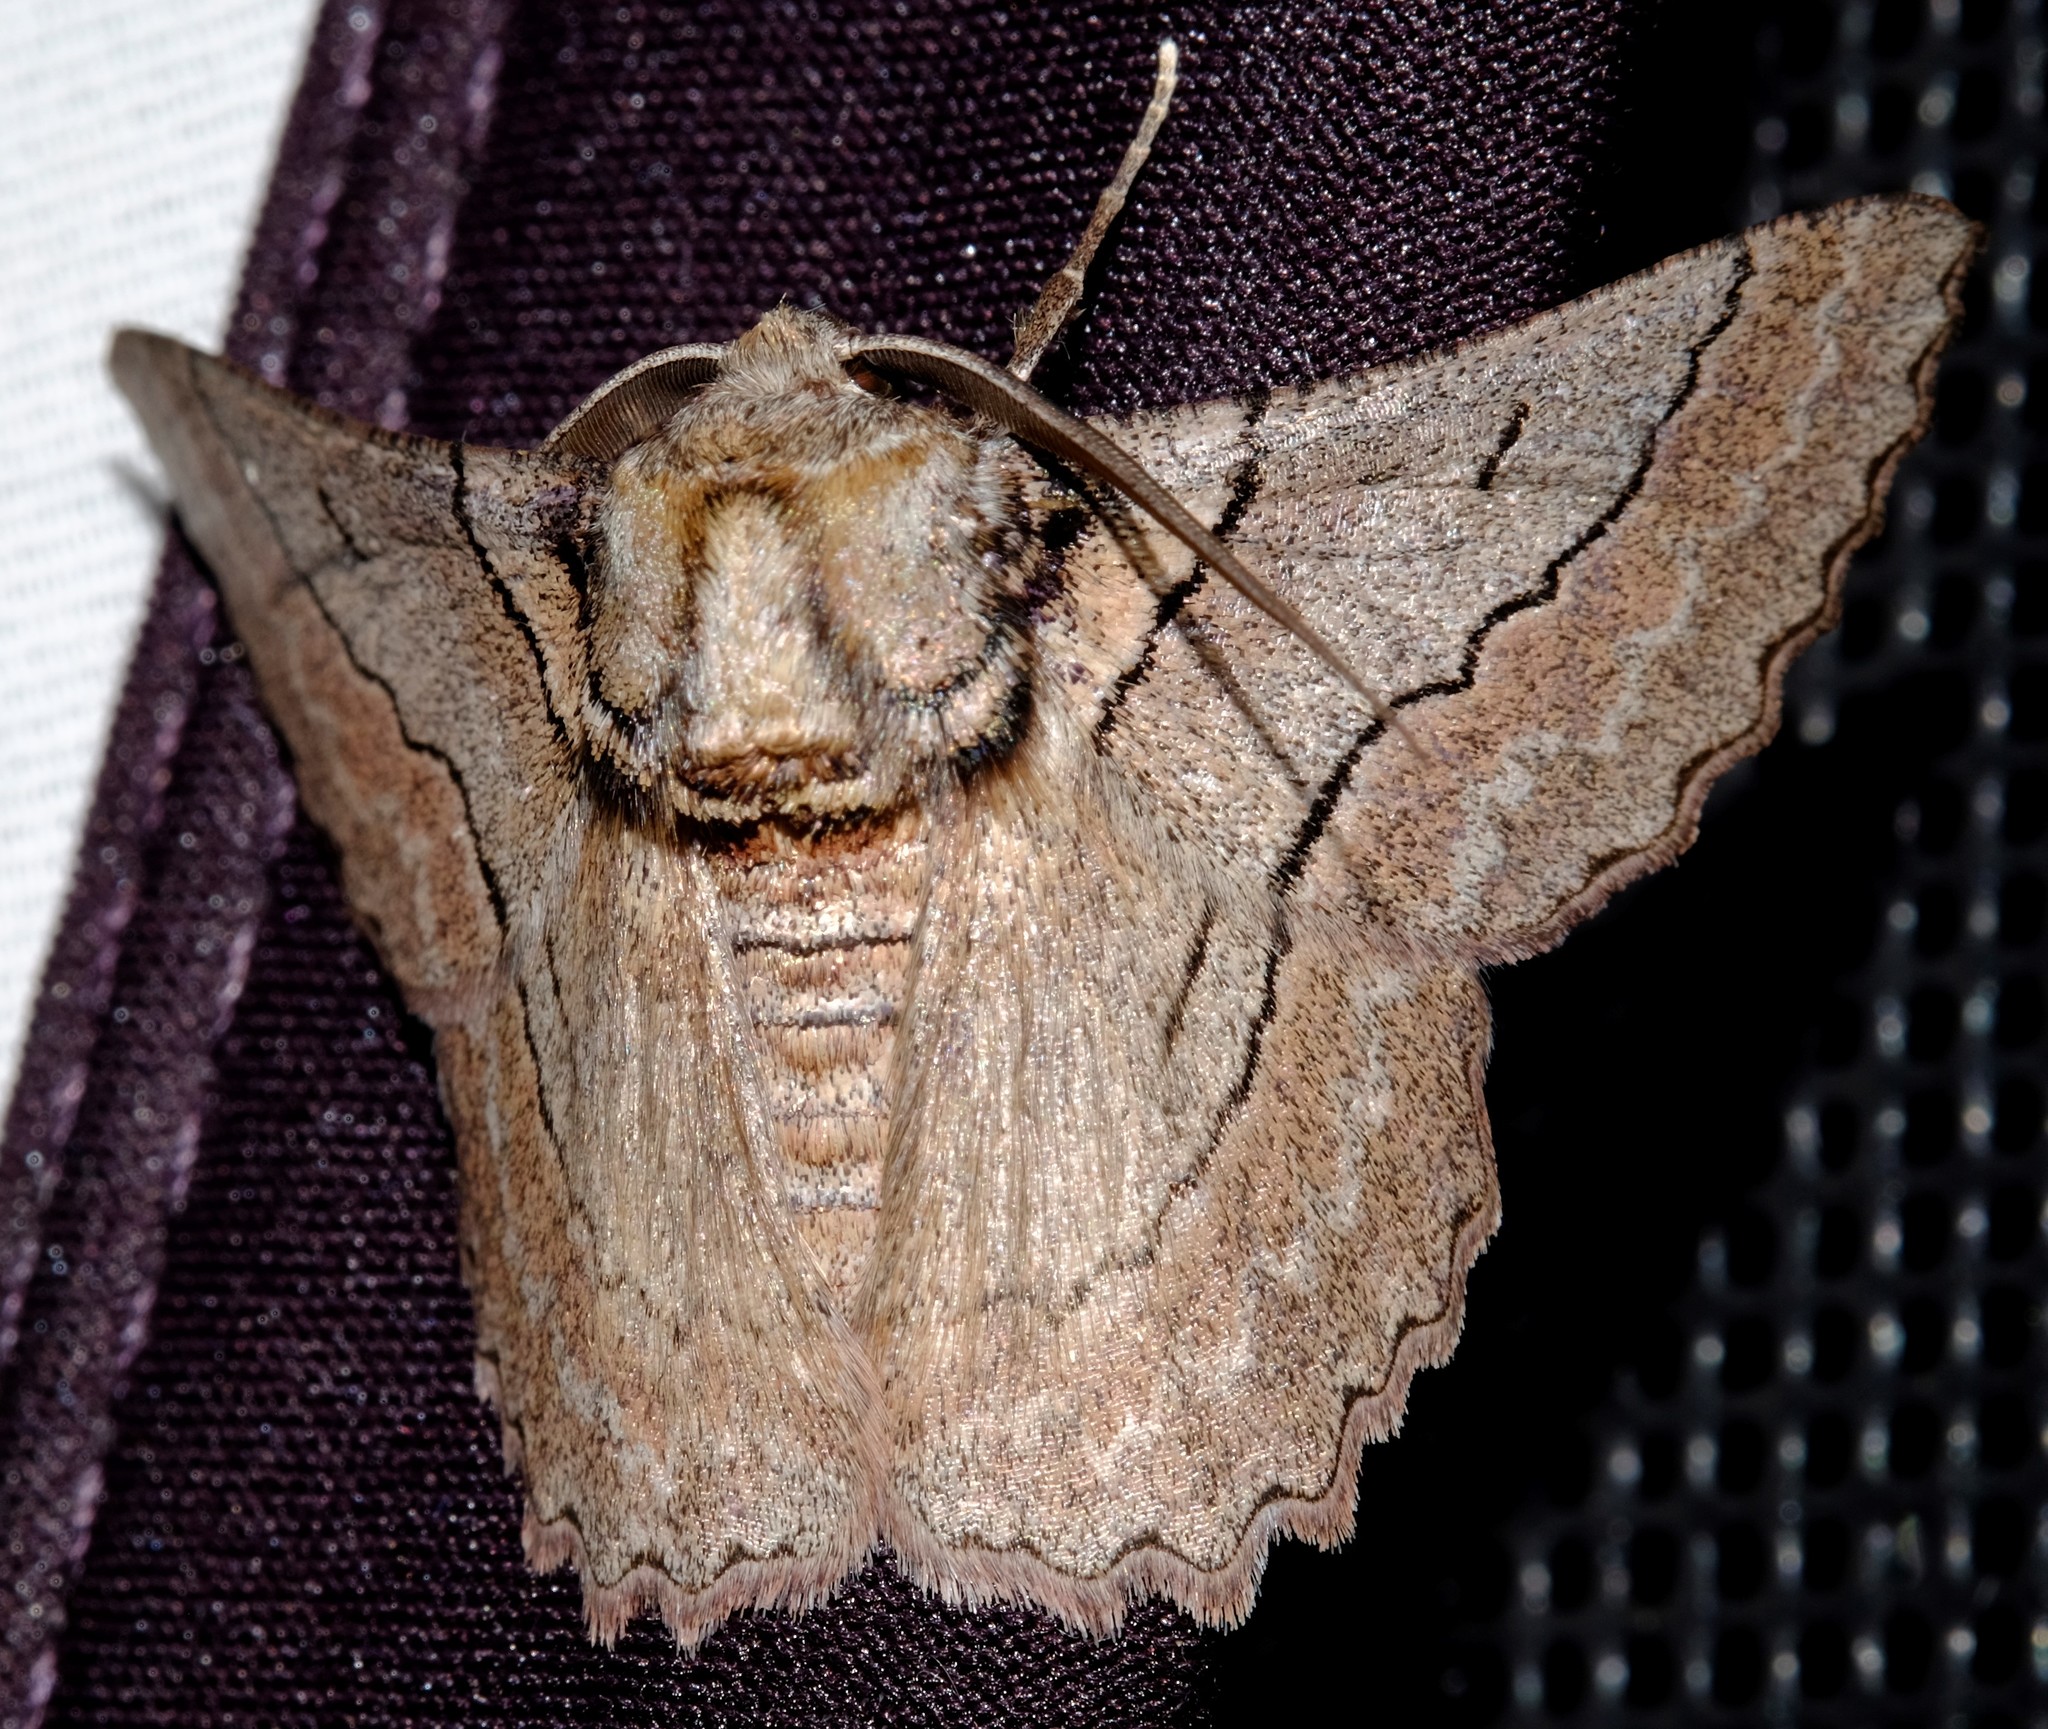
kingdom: Animalia
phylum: Arthropoda
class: Insecta
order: Lepidoptera
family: Geometridae
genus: Hypobapta
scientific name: Hypobapta tachyhalotaria
